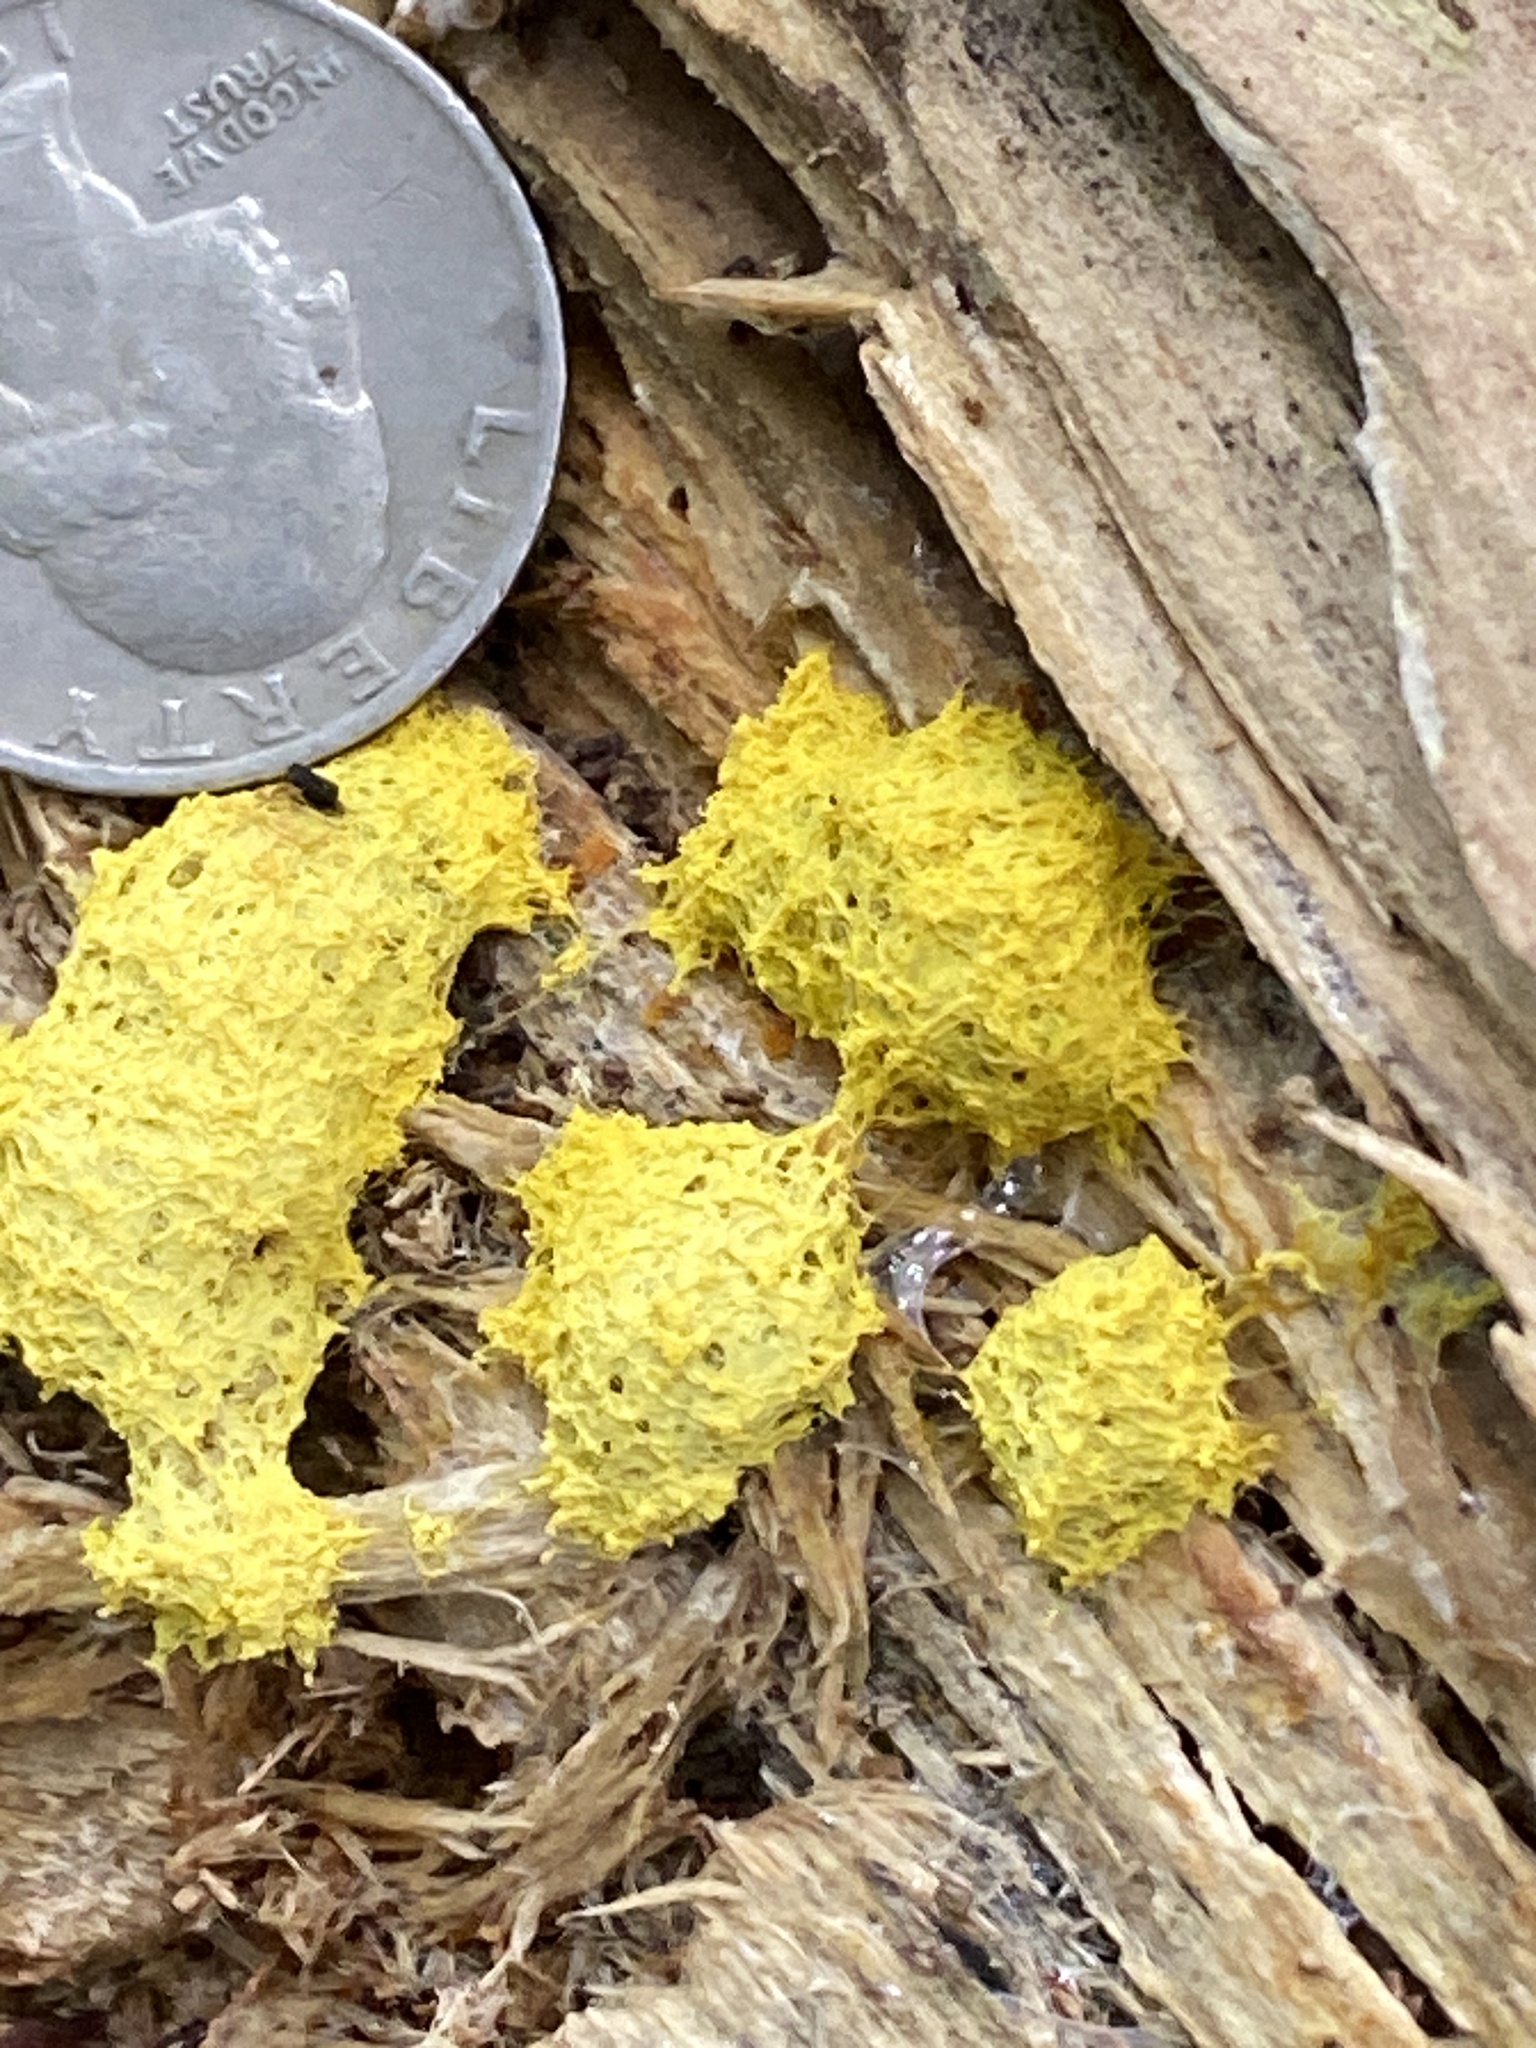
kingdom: Protozoa
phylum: Mycetozoa
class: Myxomycetes
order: Physarales
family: Physaraceae
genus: Fuligo
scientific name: Fuligo septica
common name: Dog vomit slime mold
